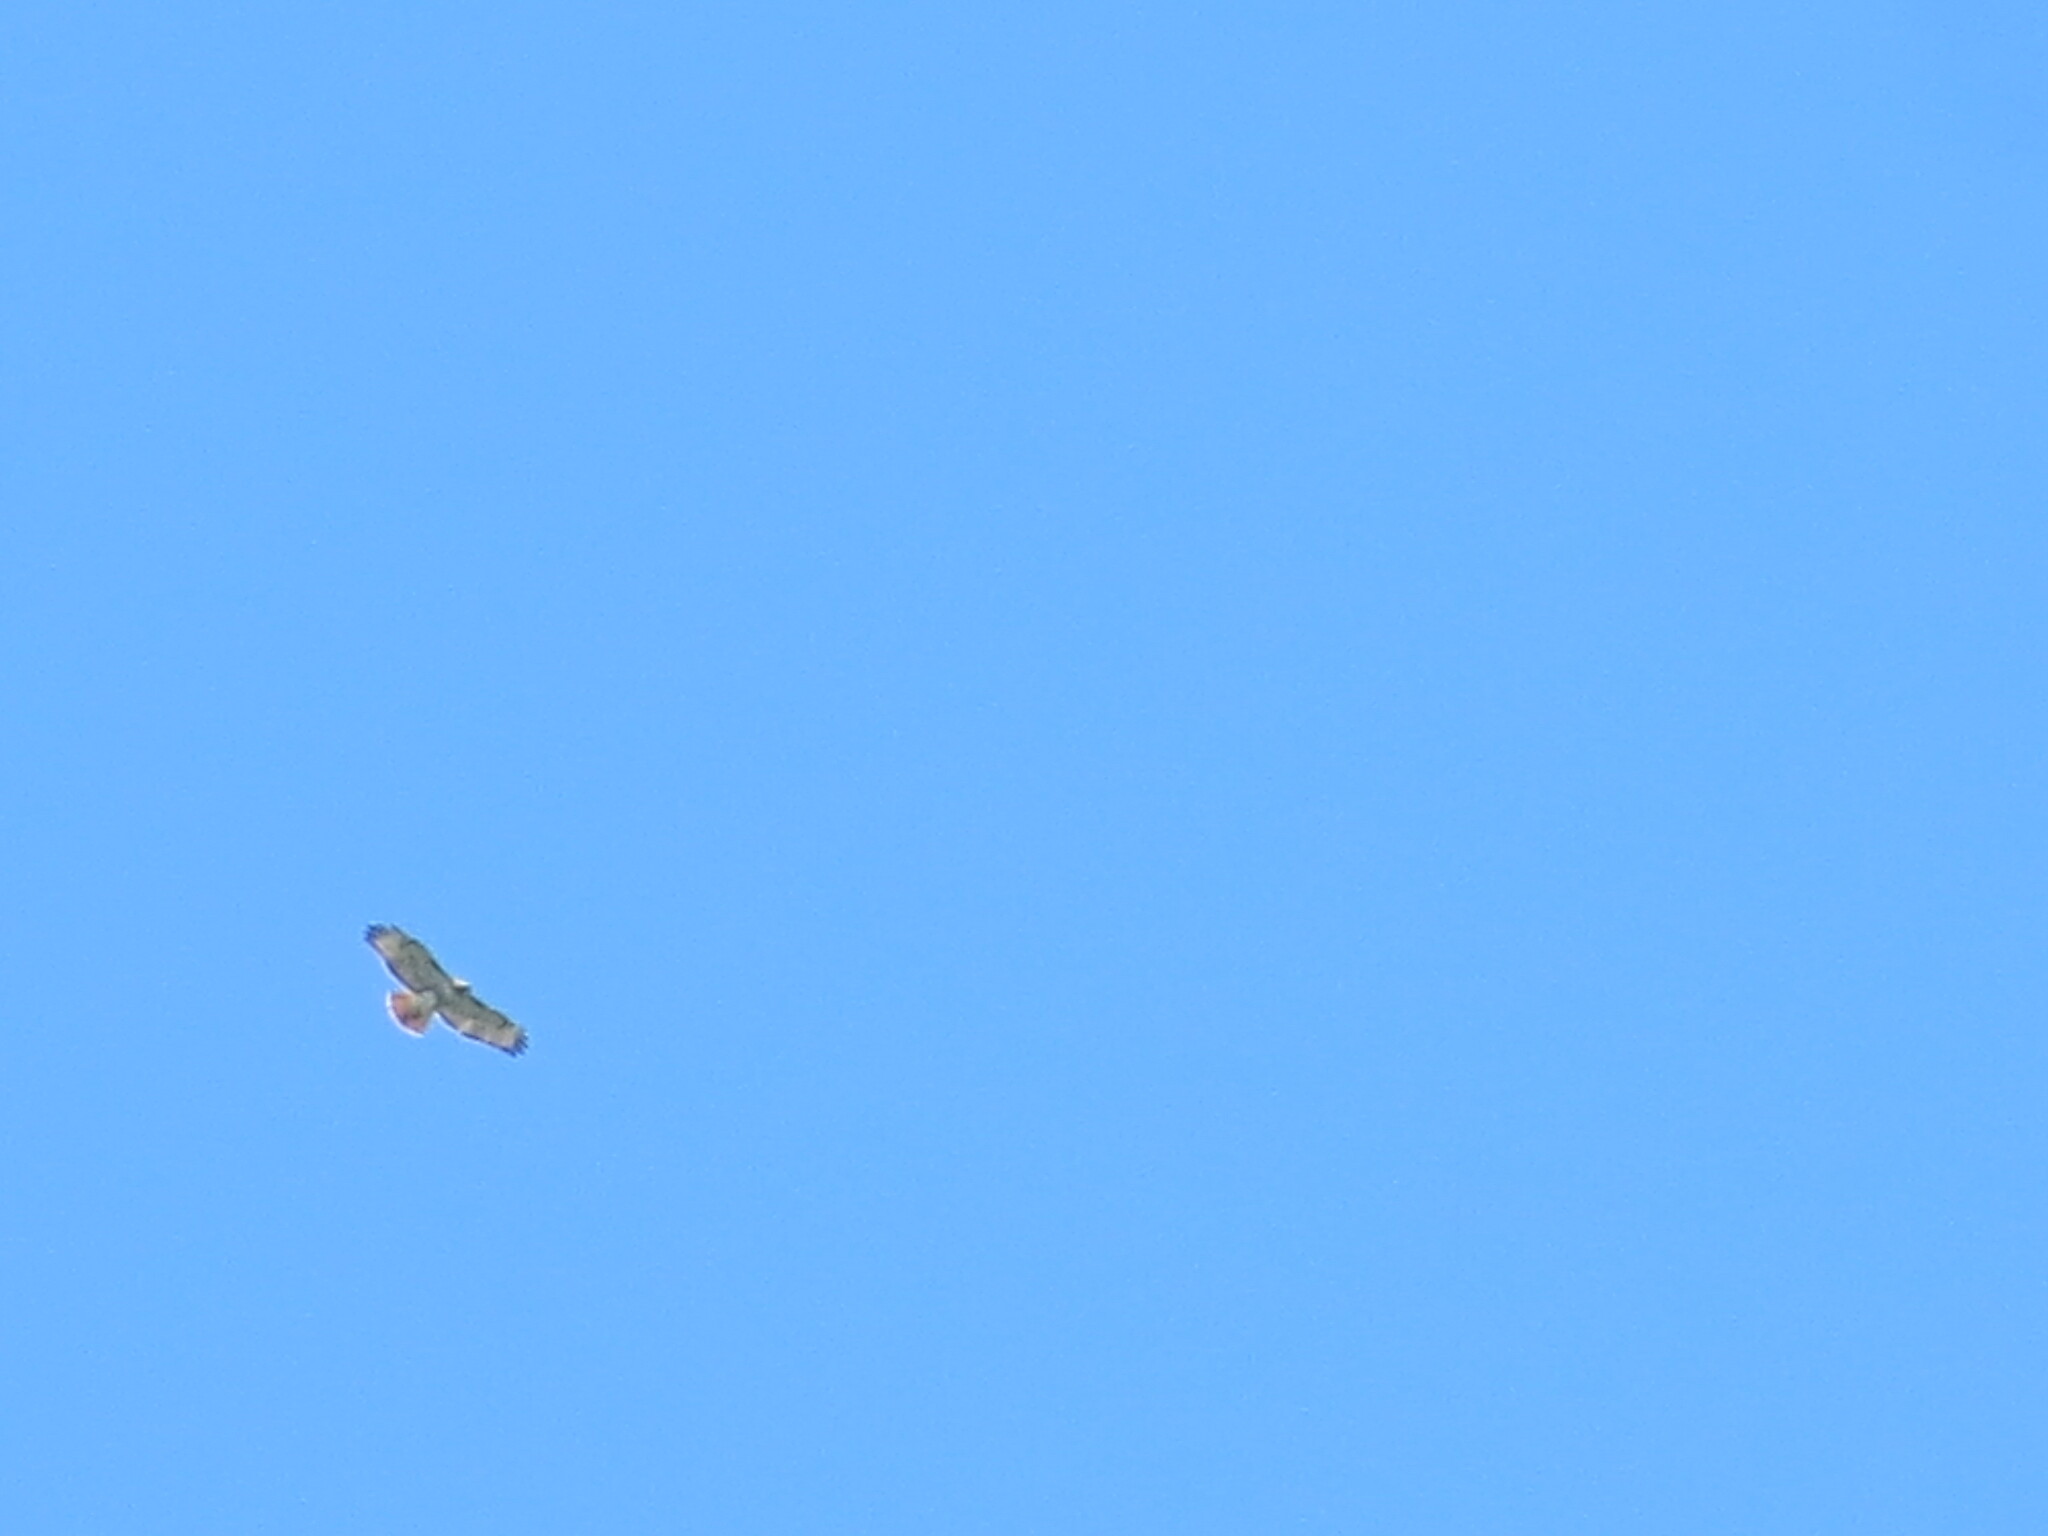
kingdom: Animalia
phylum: Chordata
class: Aves
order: Accipitriformes
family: Accipitridae
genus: Buteo
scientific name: Buteo jamaicensis
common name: Red-tailed hawk
